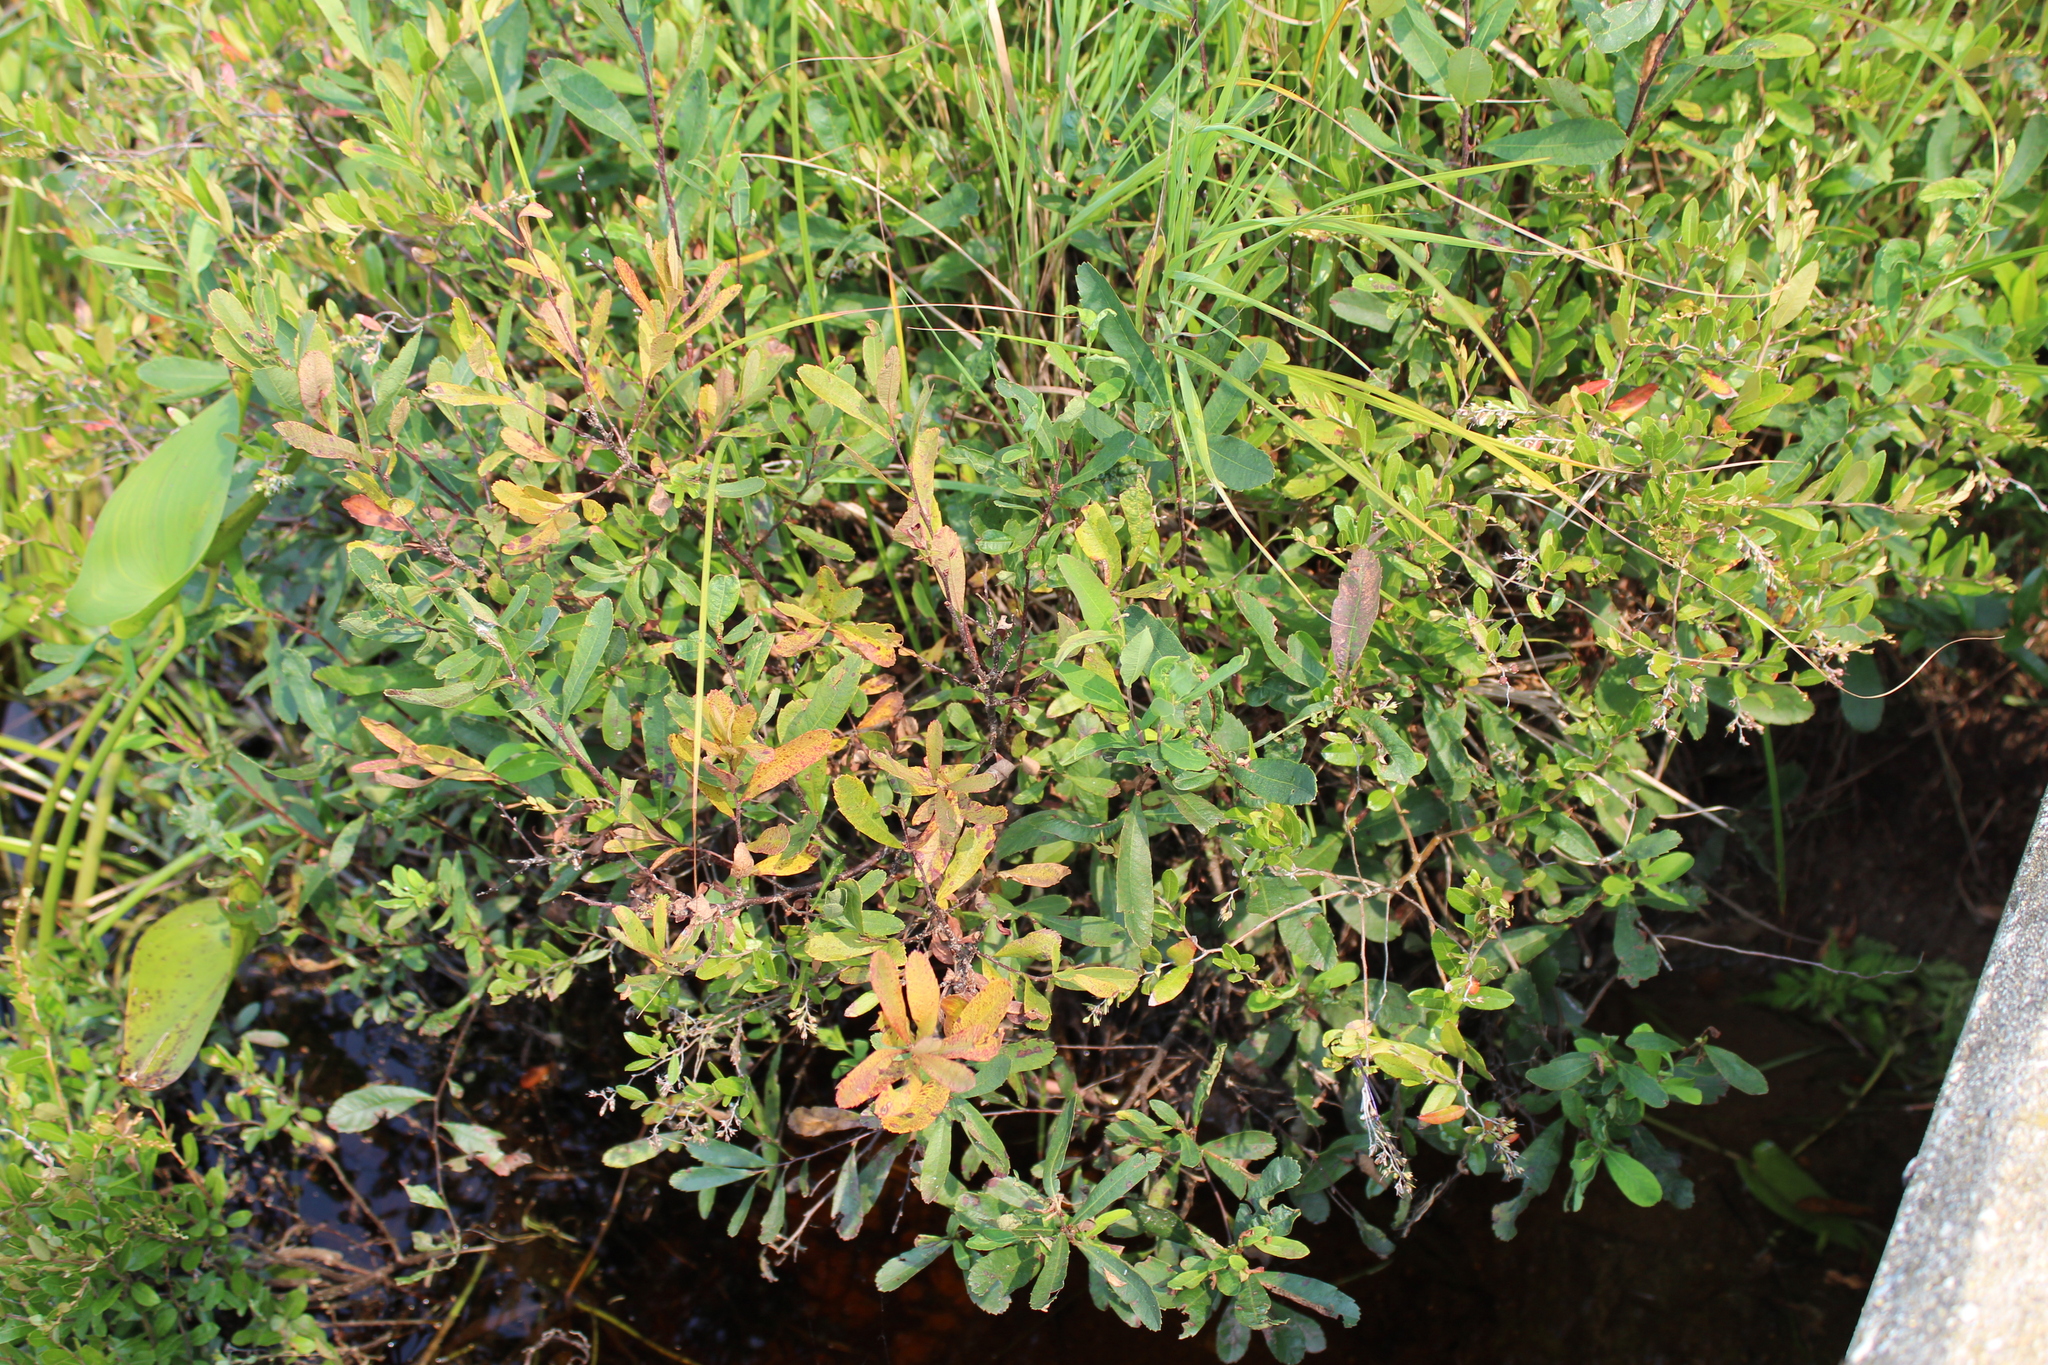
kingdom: Plantae
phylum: Tracheophyta
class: Magnoliopsida
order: Fagales
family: Myricaceae
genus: Myrica
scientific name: Myrica gale
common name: Sweet gale
